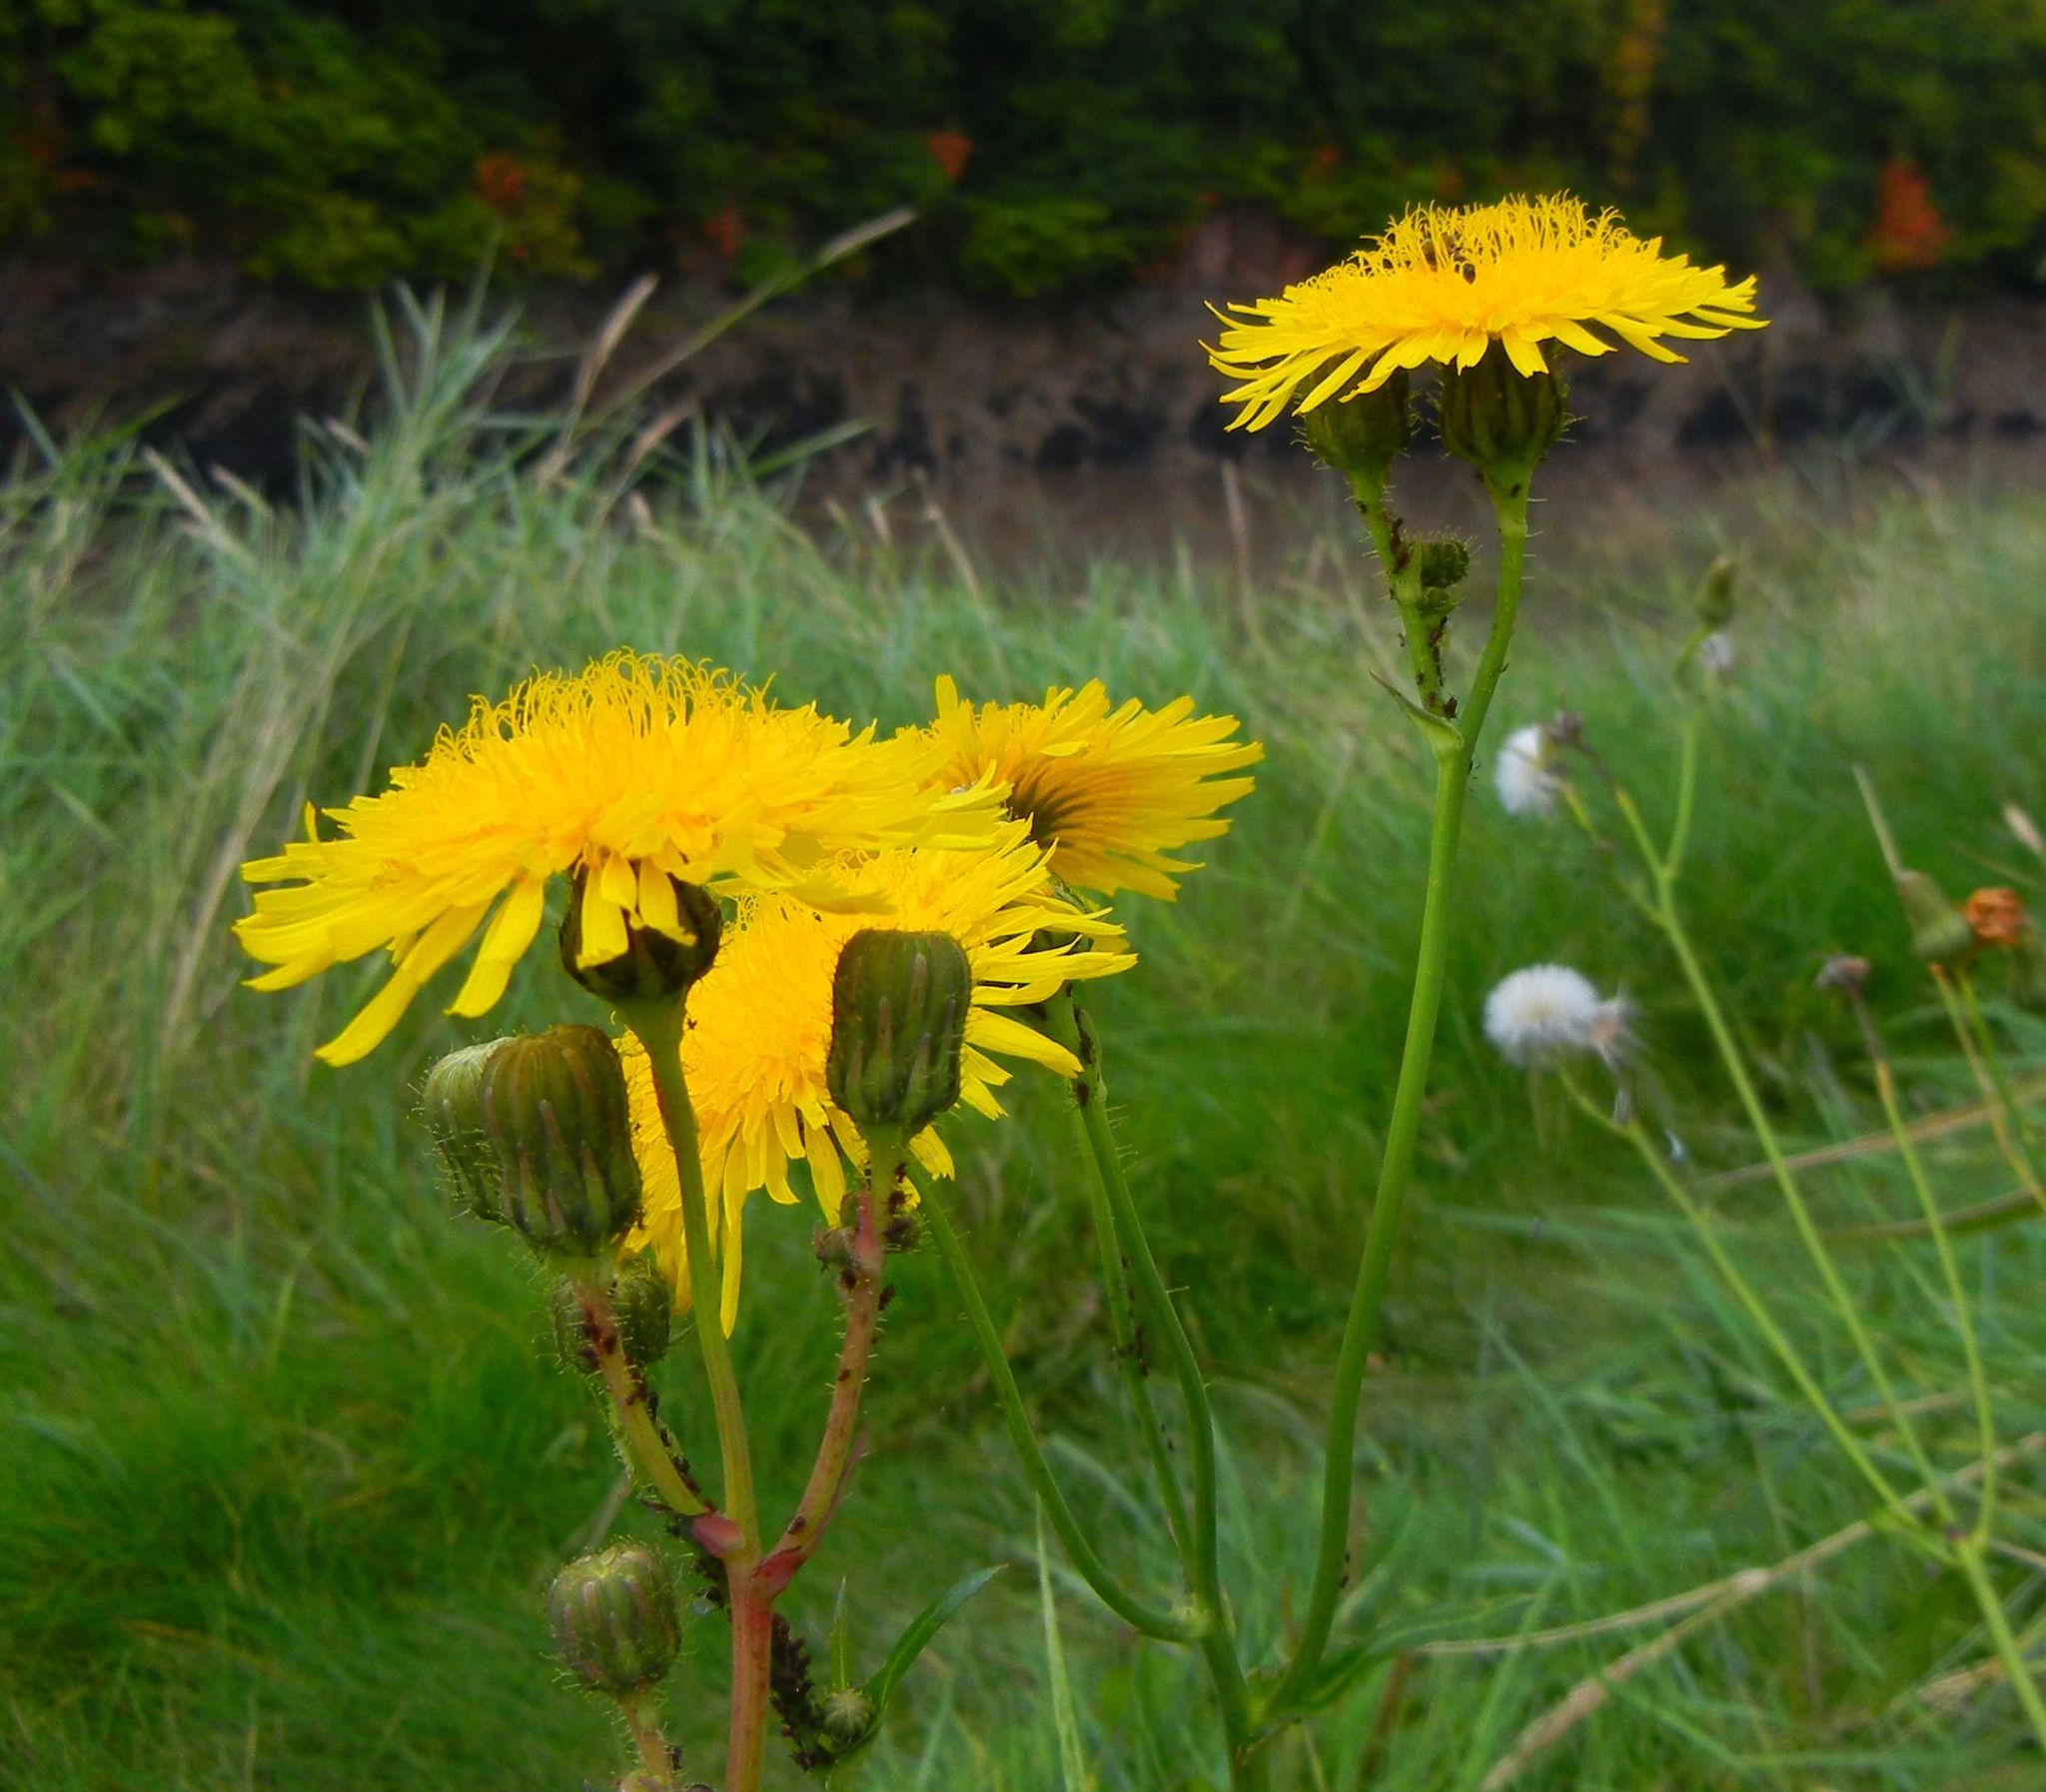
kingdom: Plantae
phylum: Tracheophyta
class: Magnoliopsida
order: Asterales
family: Asteraceae
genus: Sonchus
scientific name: Sonchus arvensis
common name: Perennial sow-thistle
